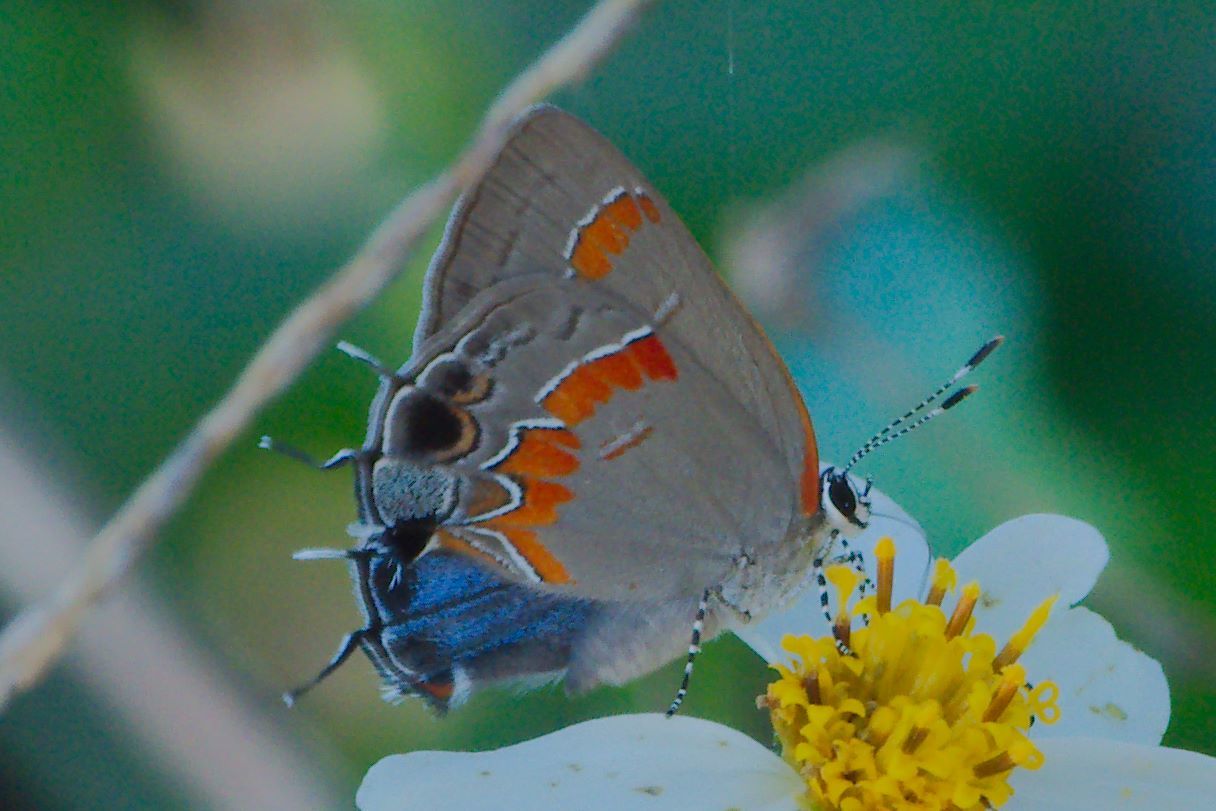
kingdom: Animalia
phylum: Arthropoda
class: Insecta
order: Lepidoptera
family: Lycaenidae
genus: Calycopis
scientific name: Calycopis cecrops
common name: Red-banded hairstreak
